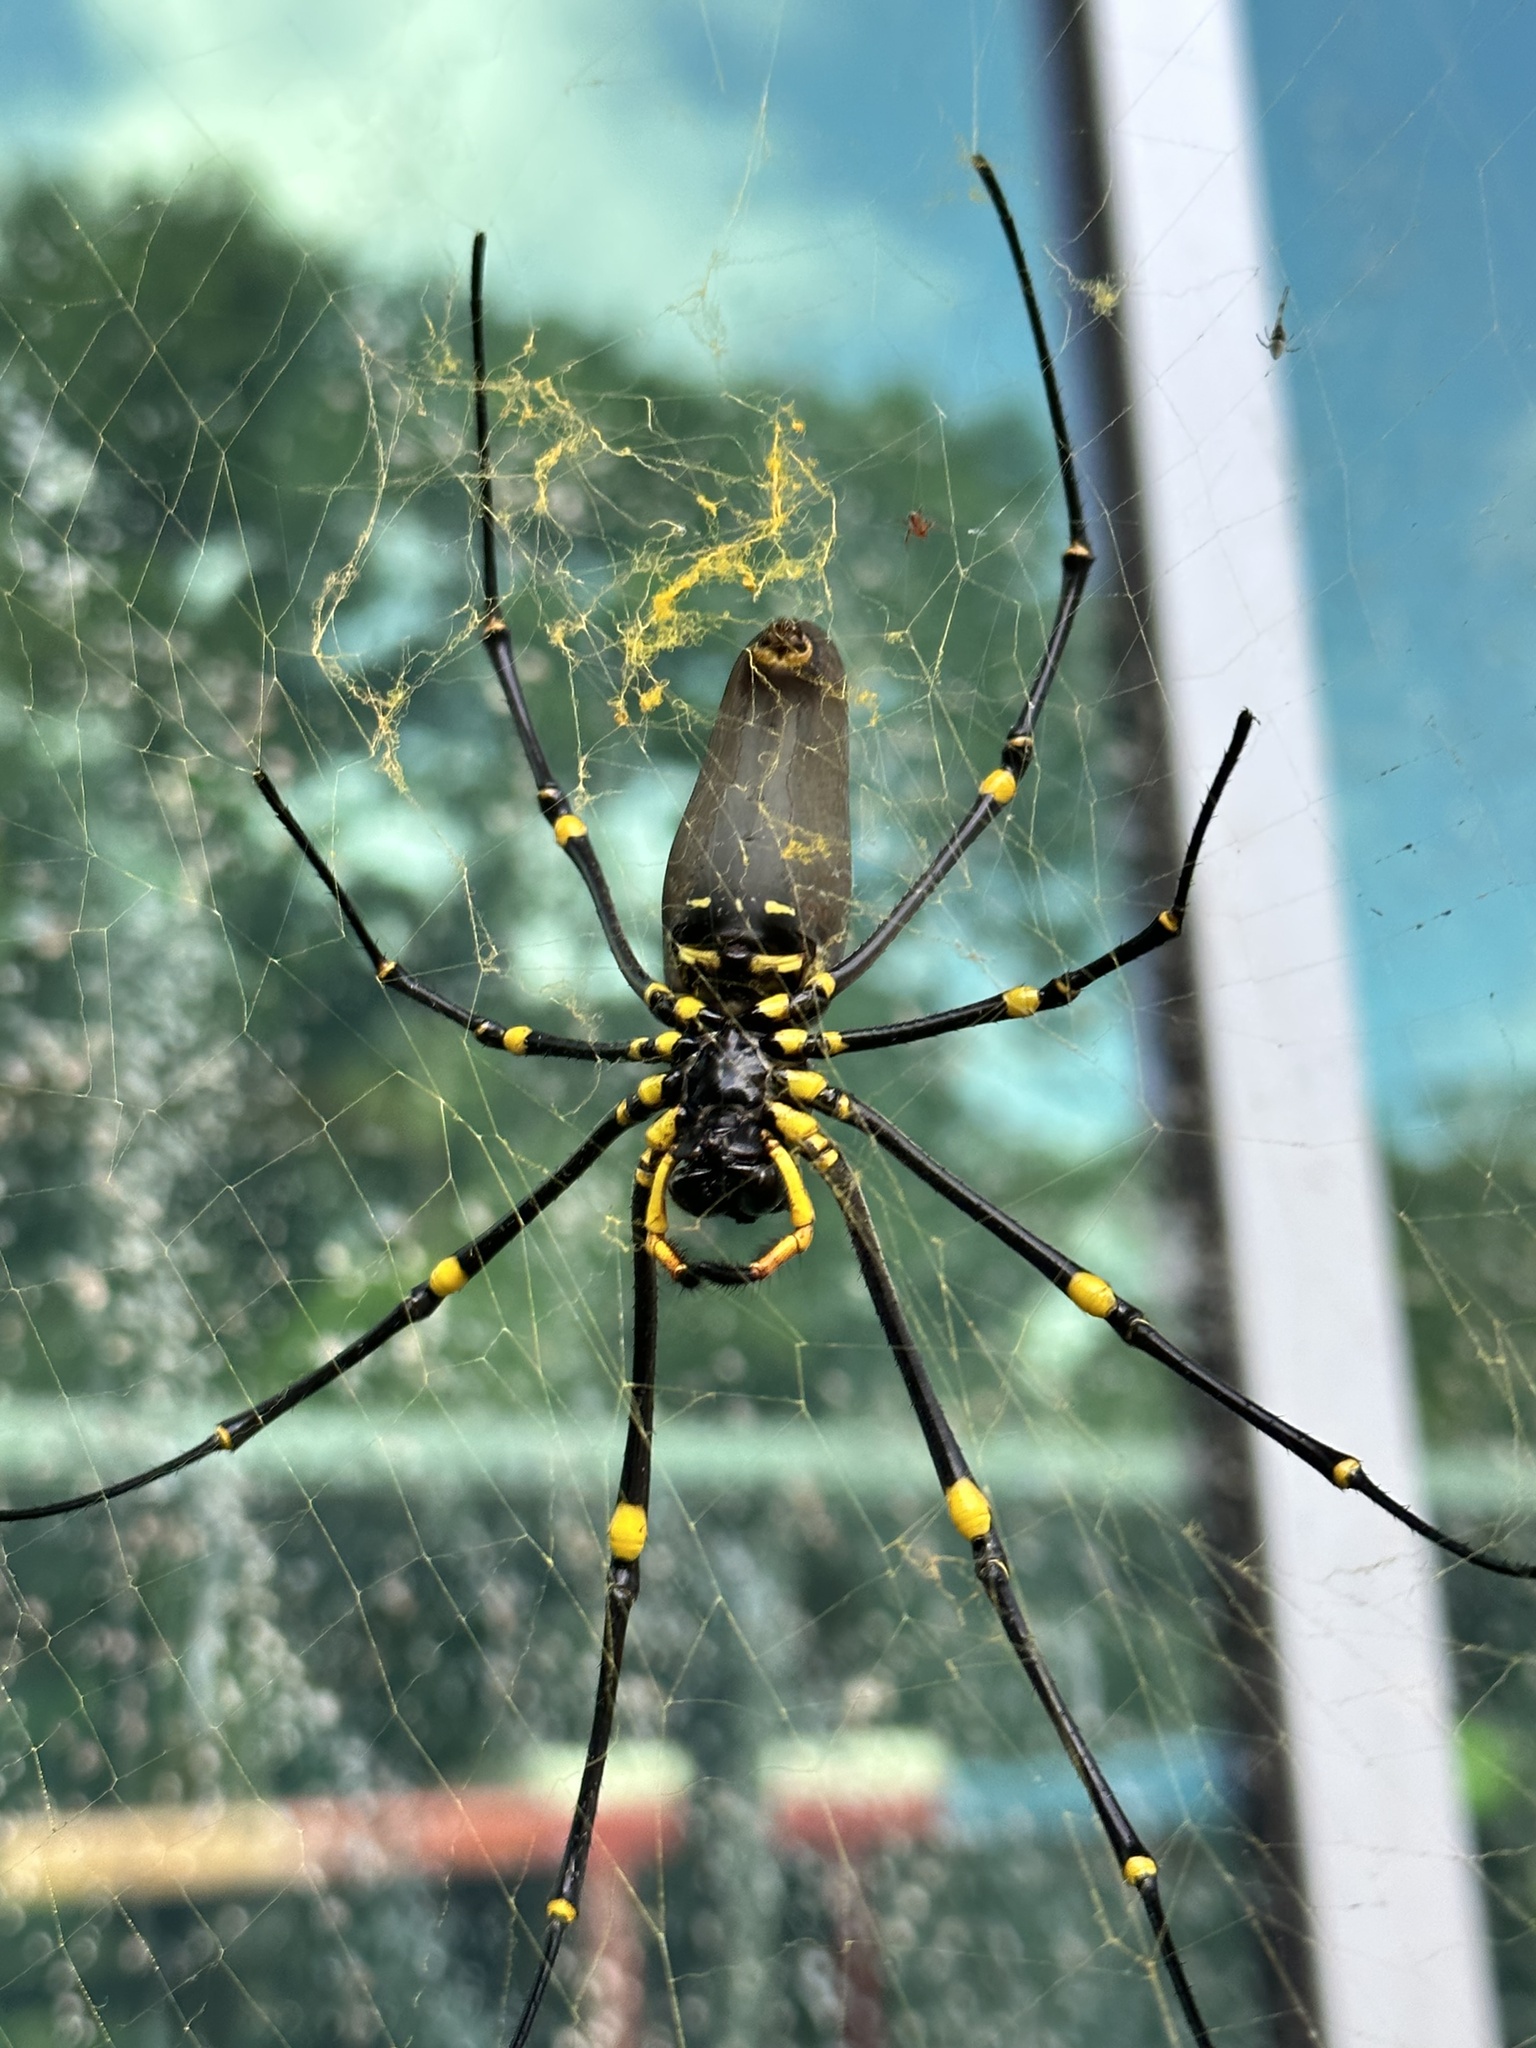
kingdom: Animalia
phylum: Arthropoda
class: Arachnida
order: Araneae
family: Araneidae
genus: Nephila
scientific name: Nephila pilipes
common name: Giant golden orb weaver
